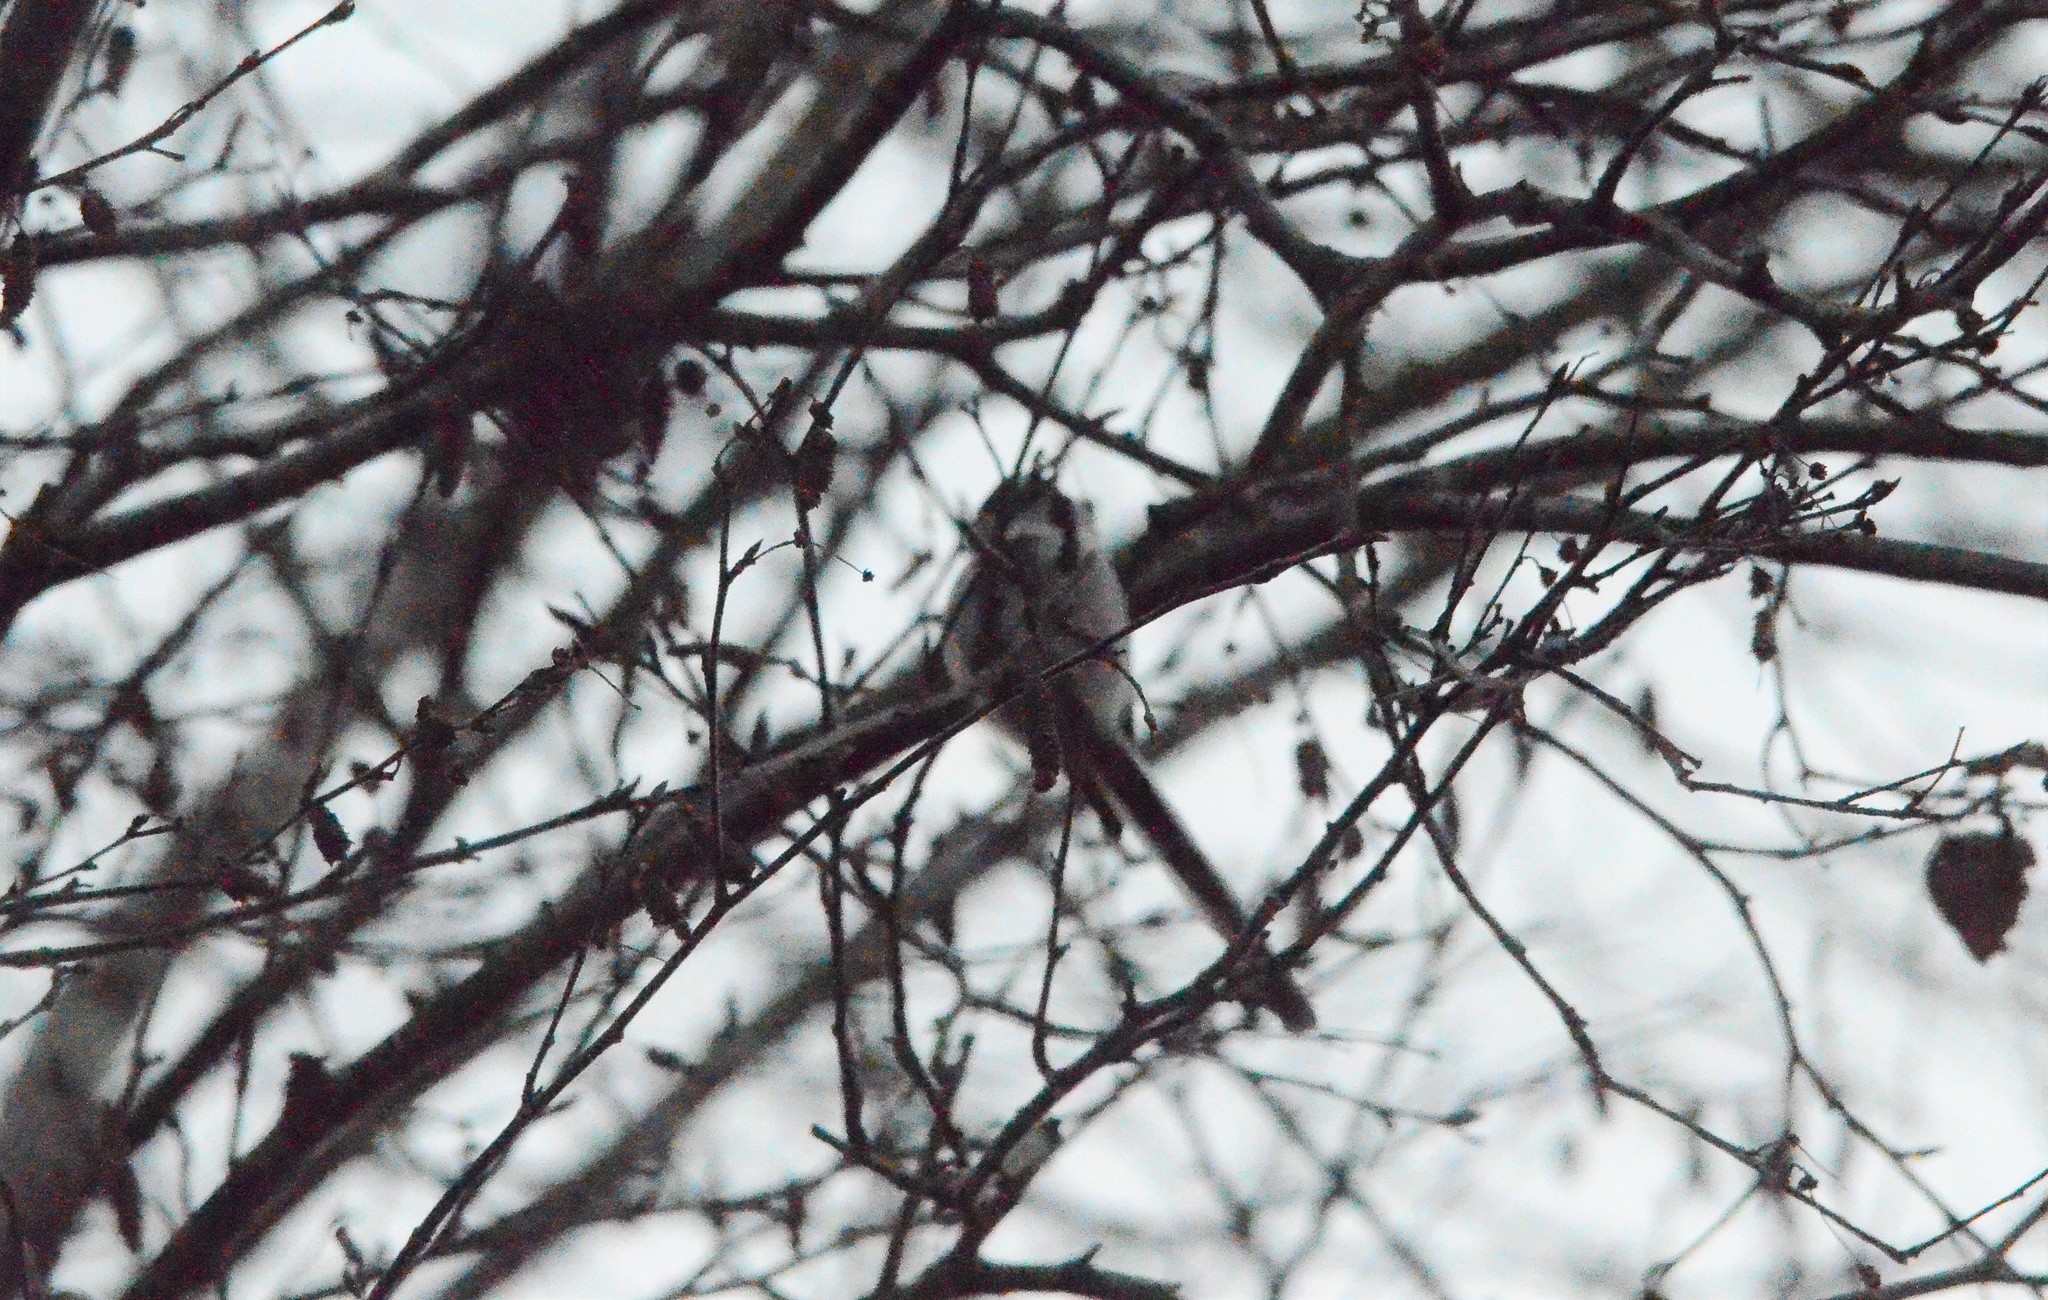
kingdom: Animalia
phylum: Chordata
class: Aves
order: Passeriformes
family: Aegithalidae
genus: Aegithalos
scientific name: Aegithalos caudatus
